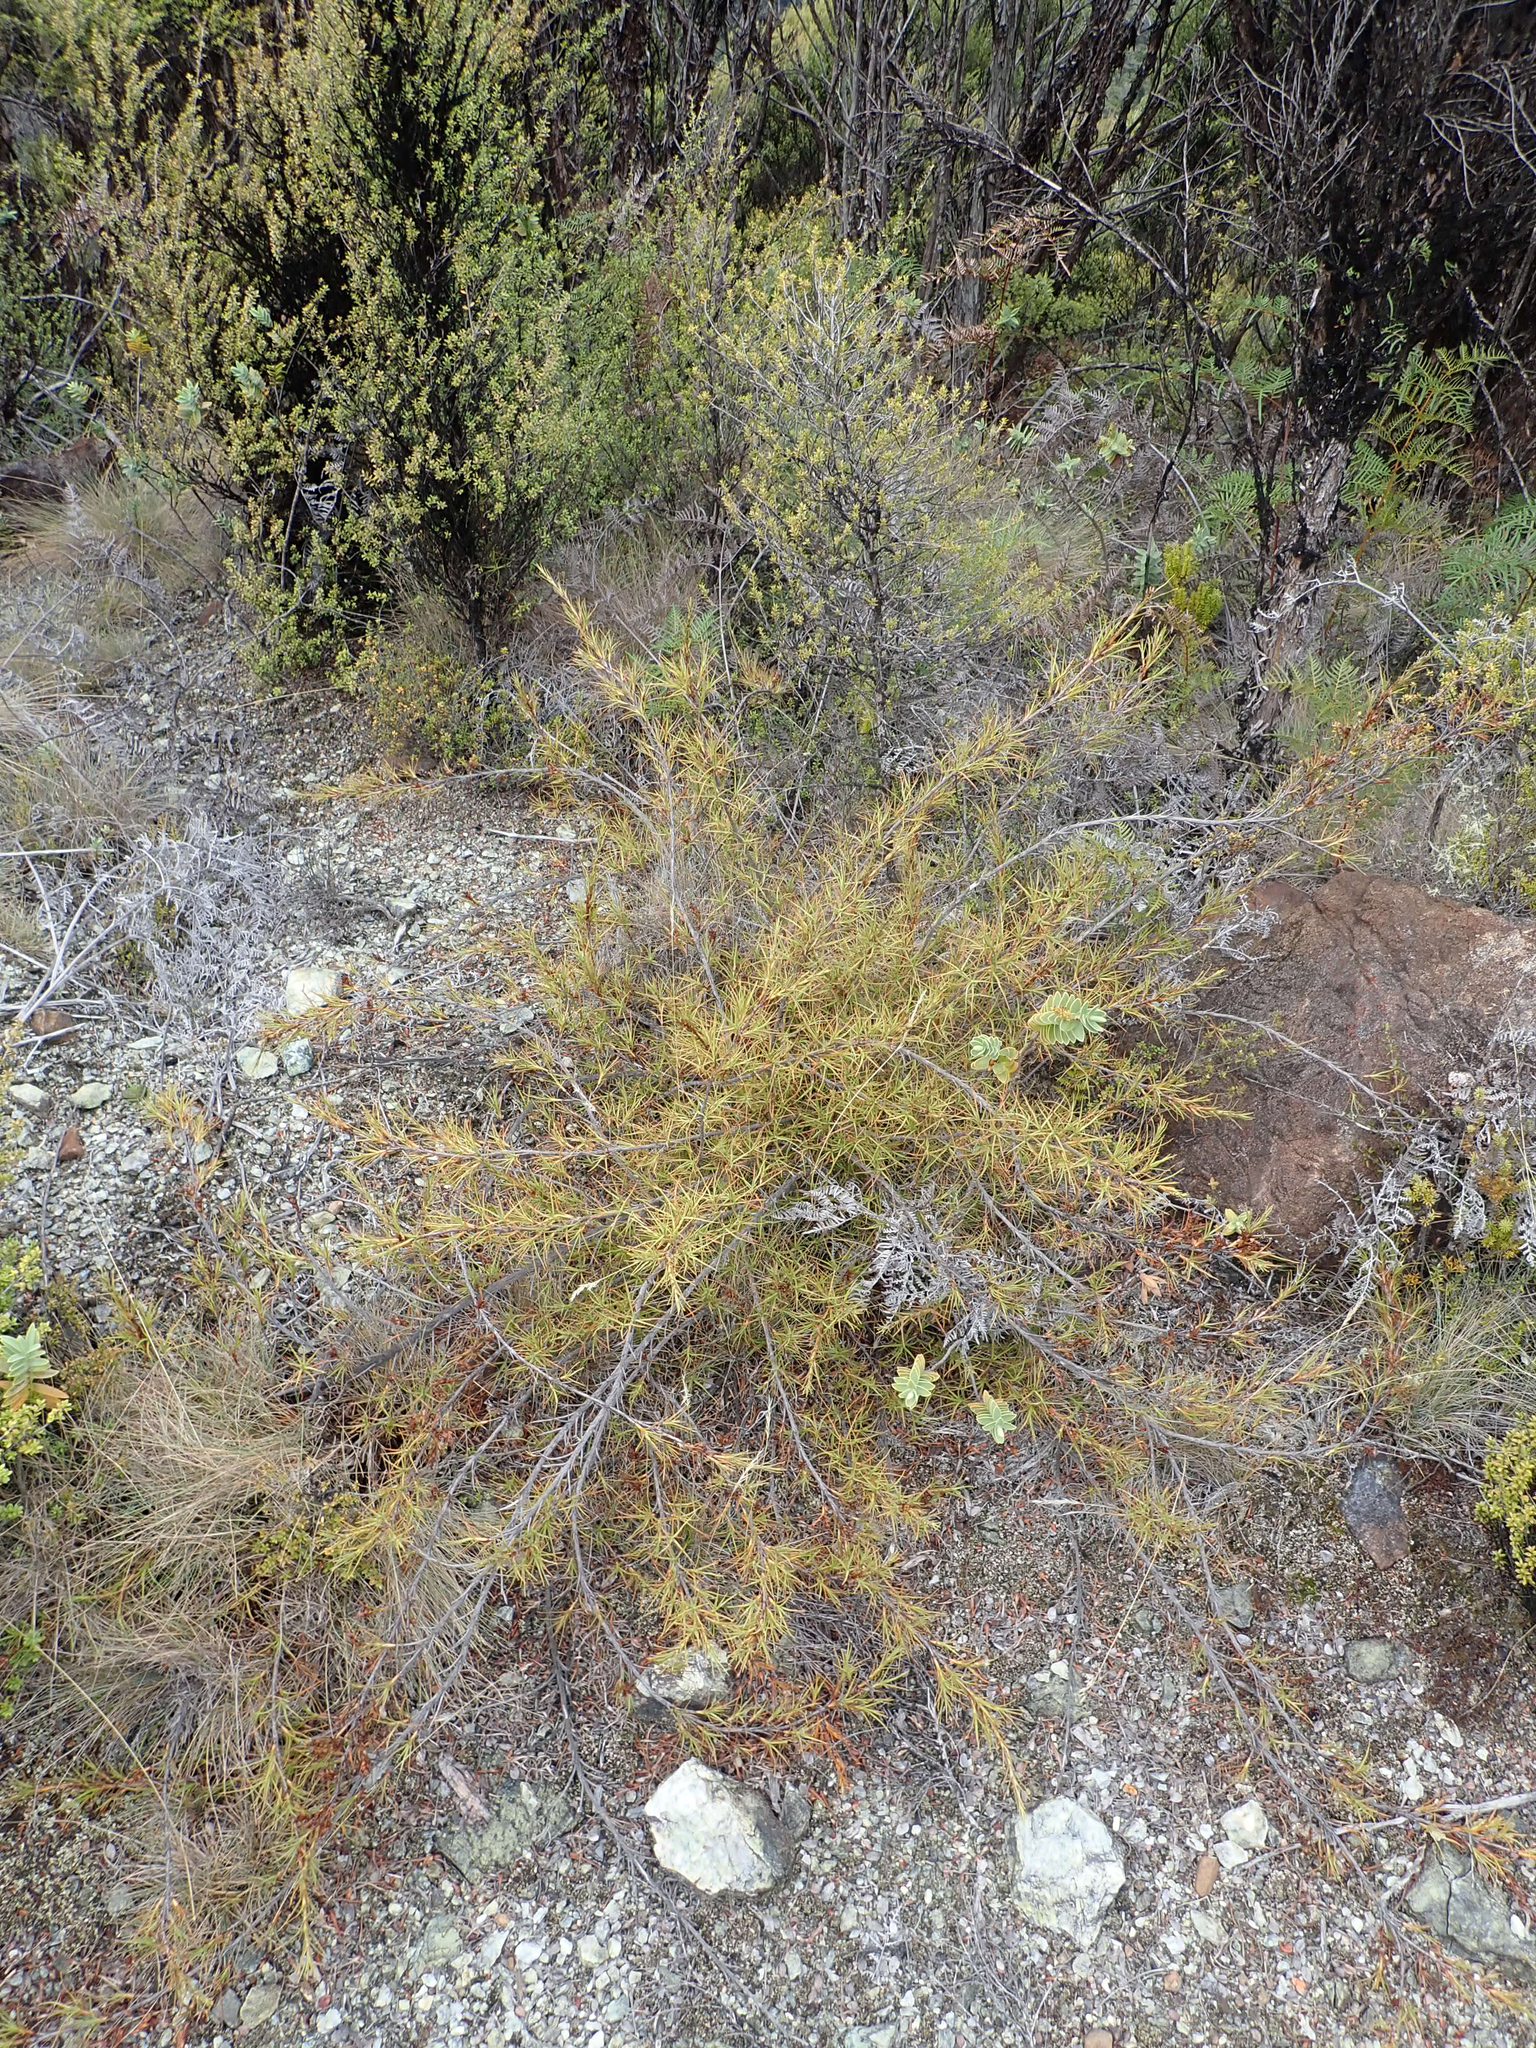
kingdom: Plantae
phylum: Tracheophyta
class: Magnoliopsida
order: Ericales
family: Ericaceae
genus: Dracophyllum
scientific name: Dracophyllum ophioliticum
